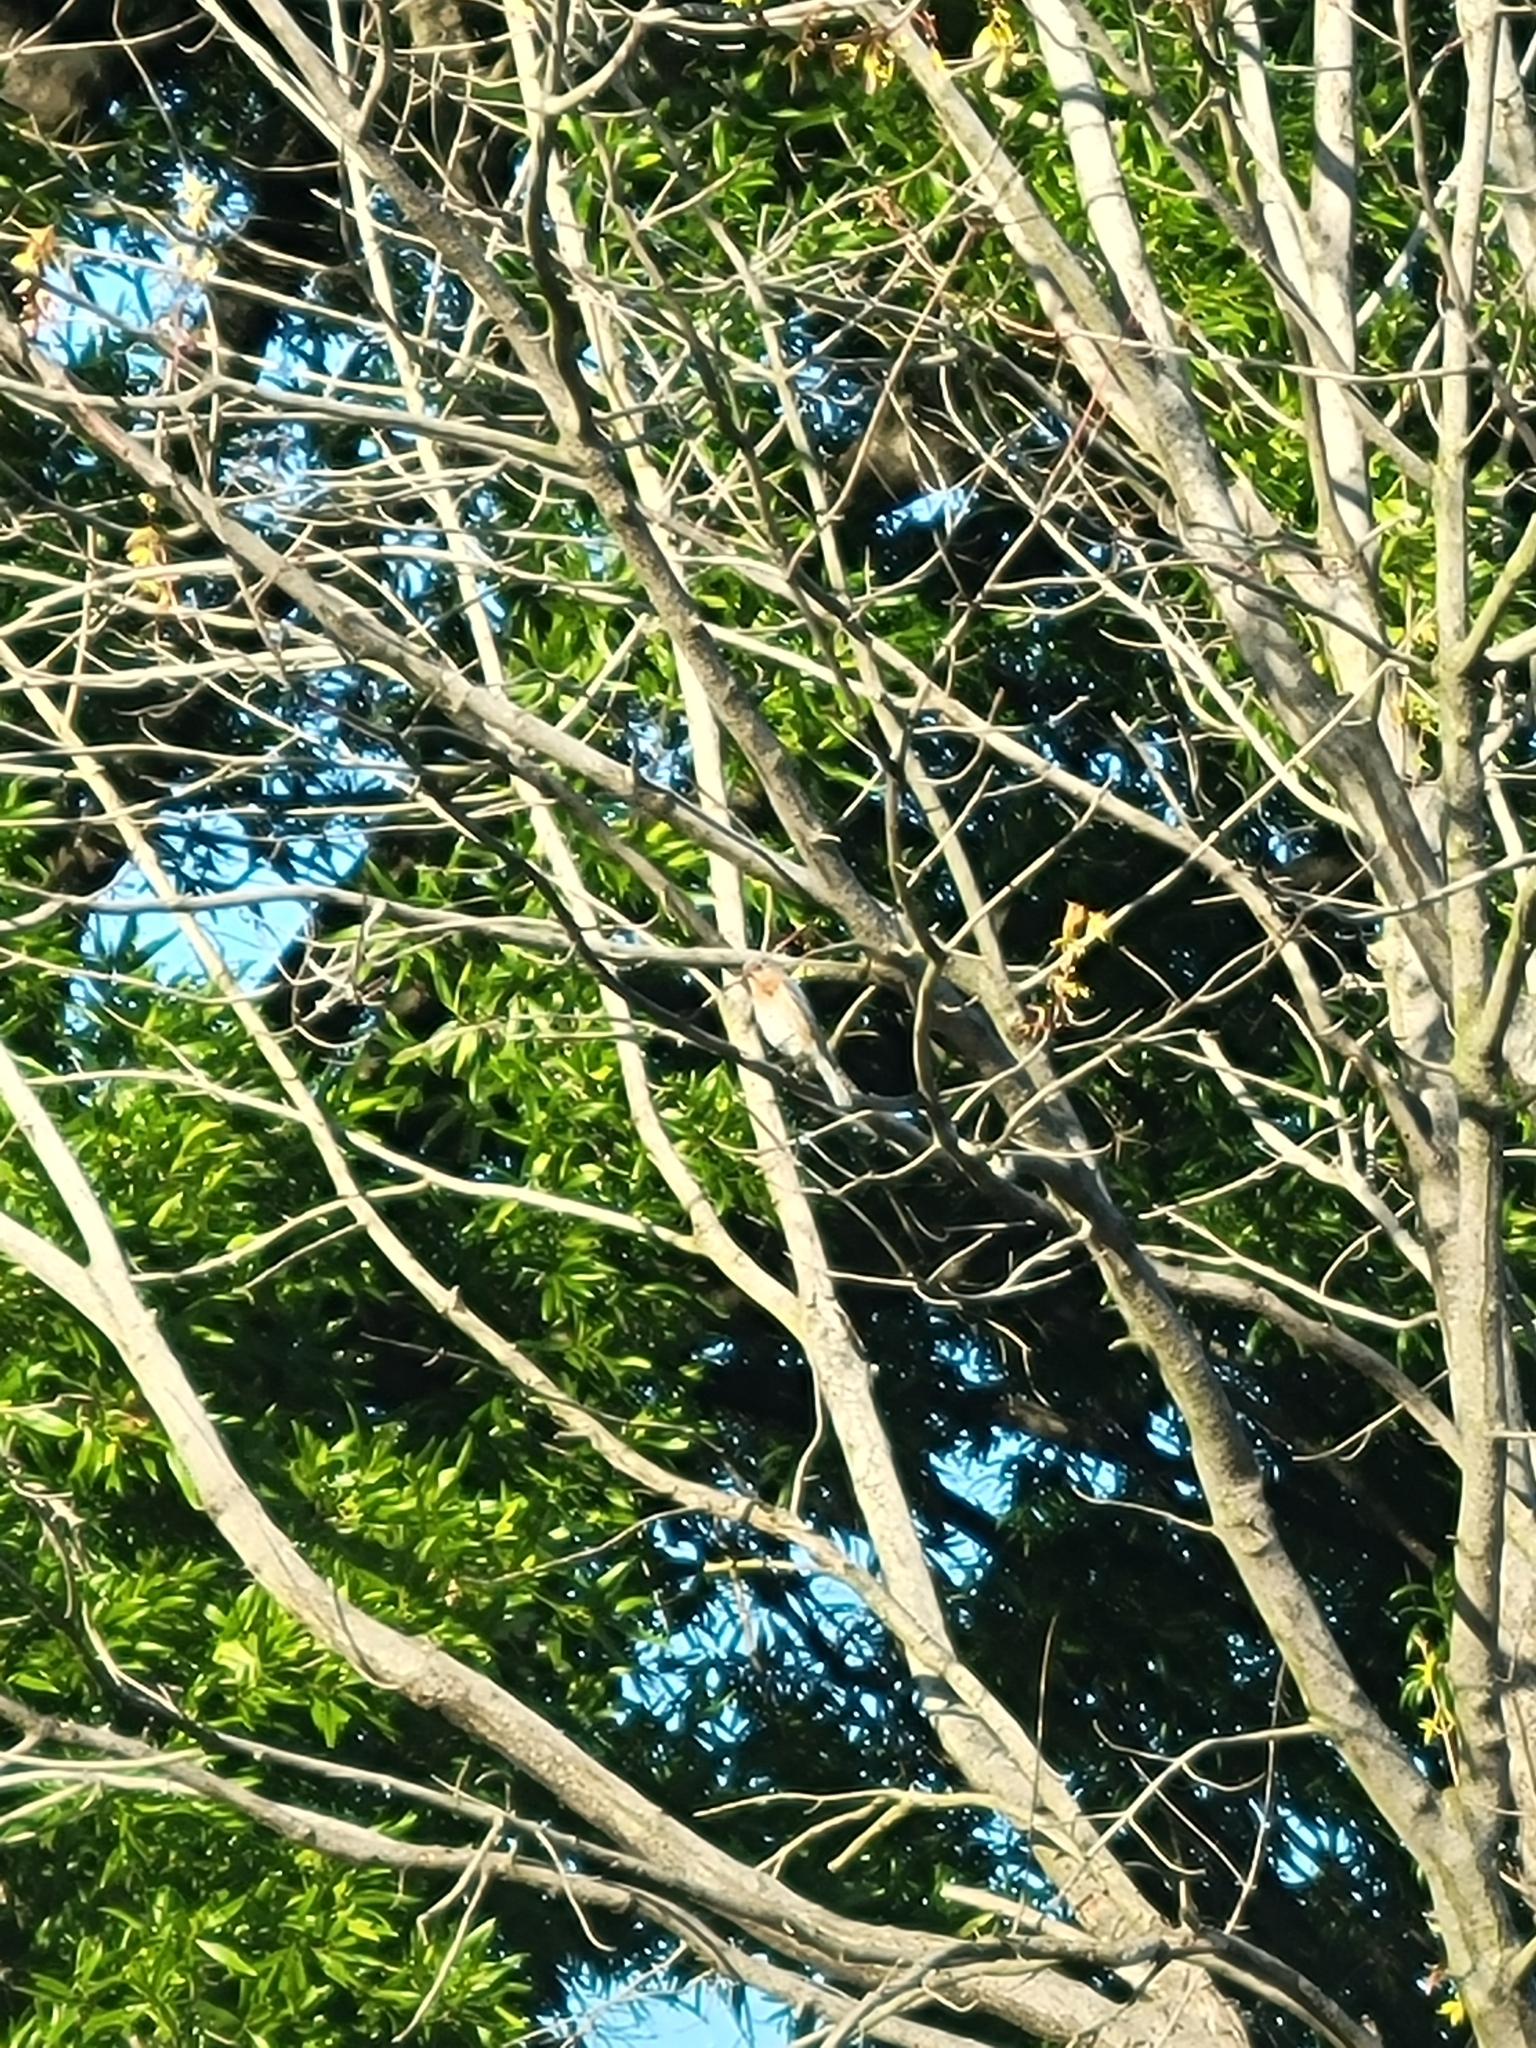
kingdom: Animalia
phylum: Chordata
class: Aves
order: Passeriformes
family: Turdidae
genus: Sialia
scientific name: Sialia sialis
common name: Eastern bluebird
